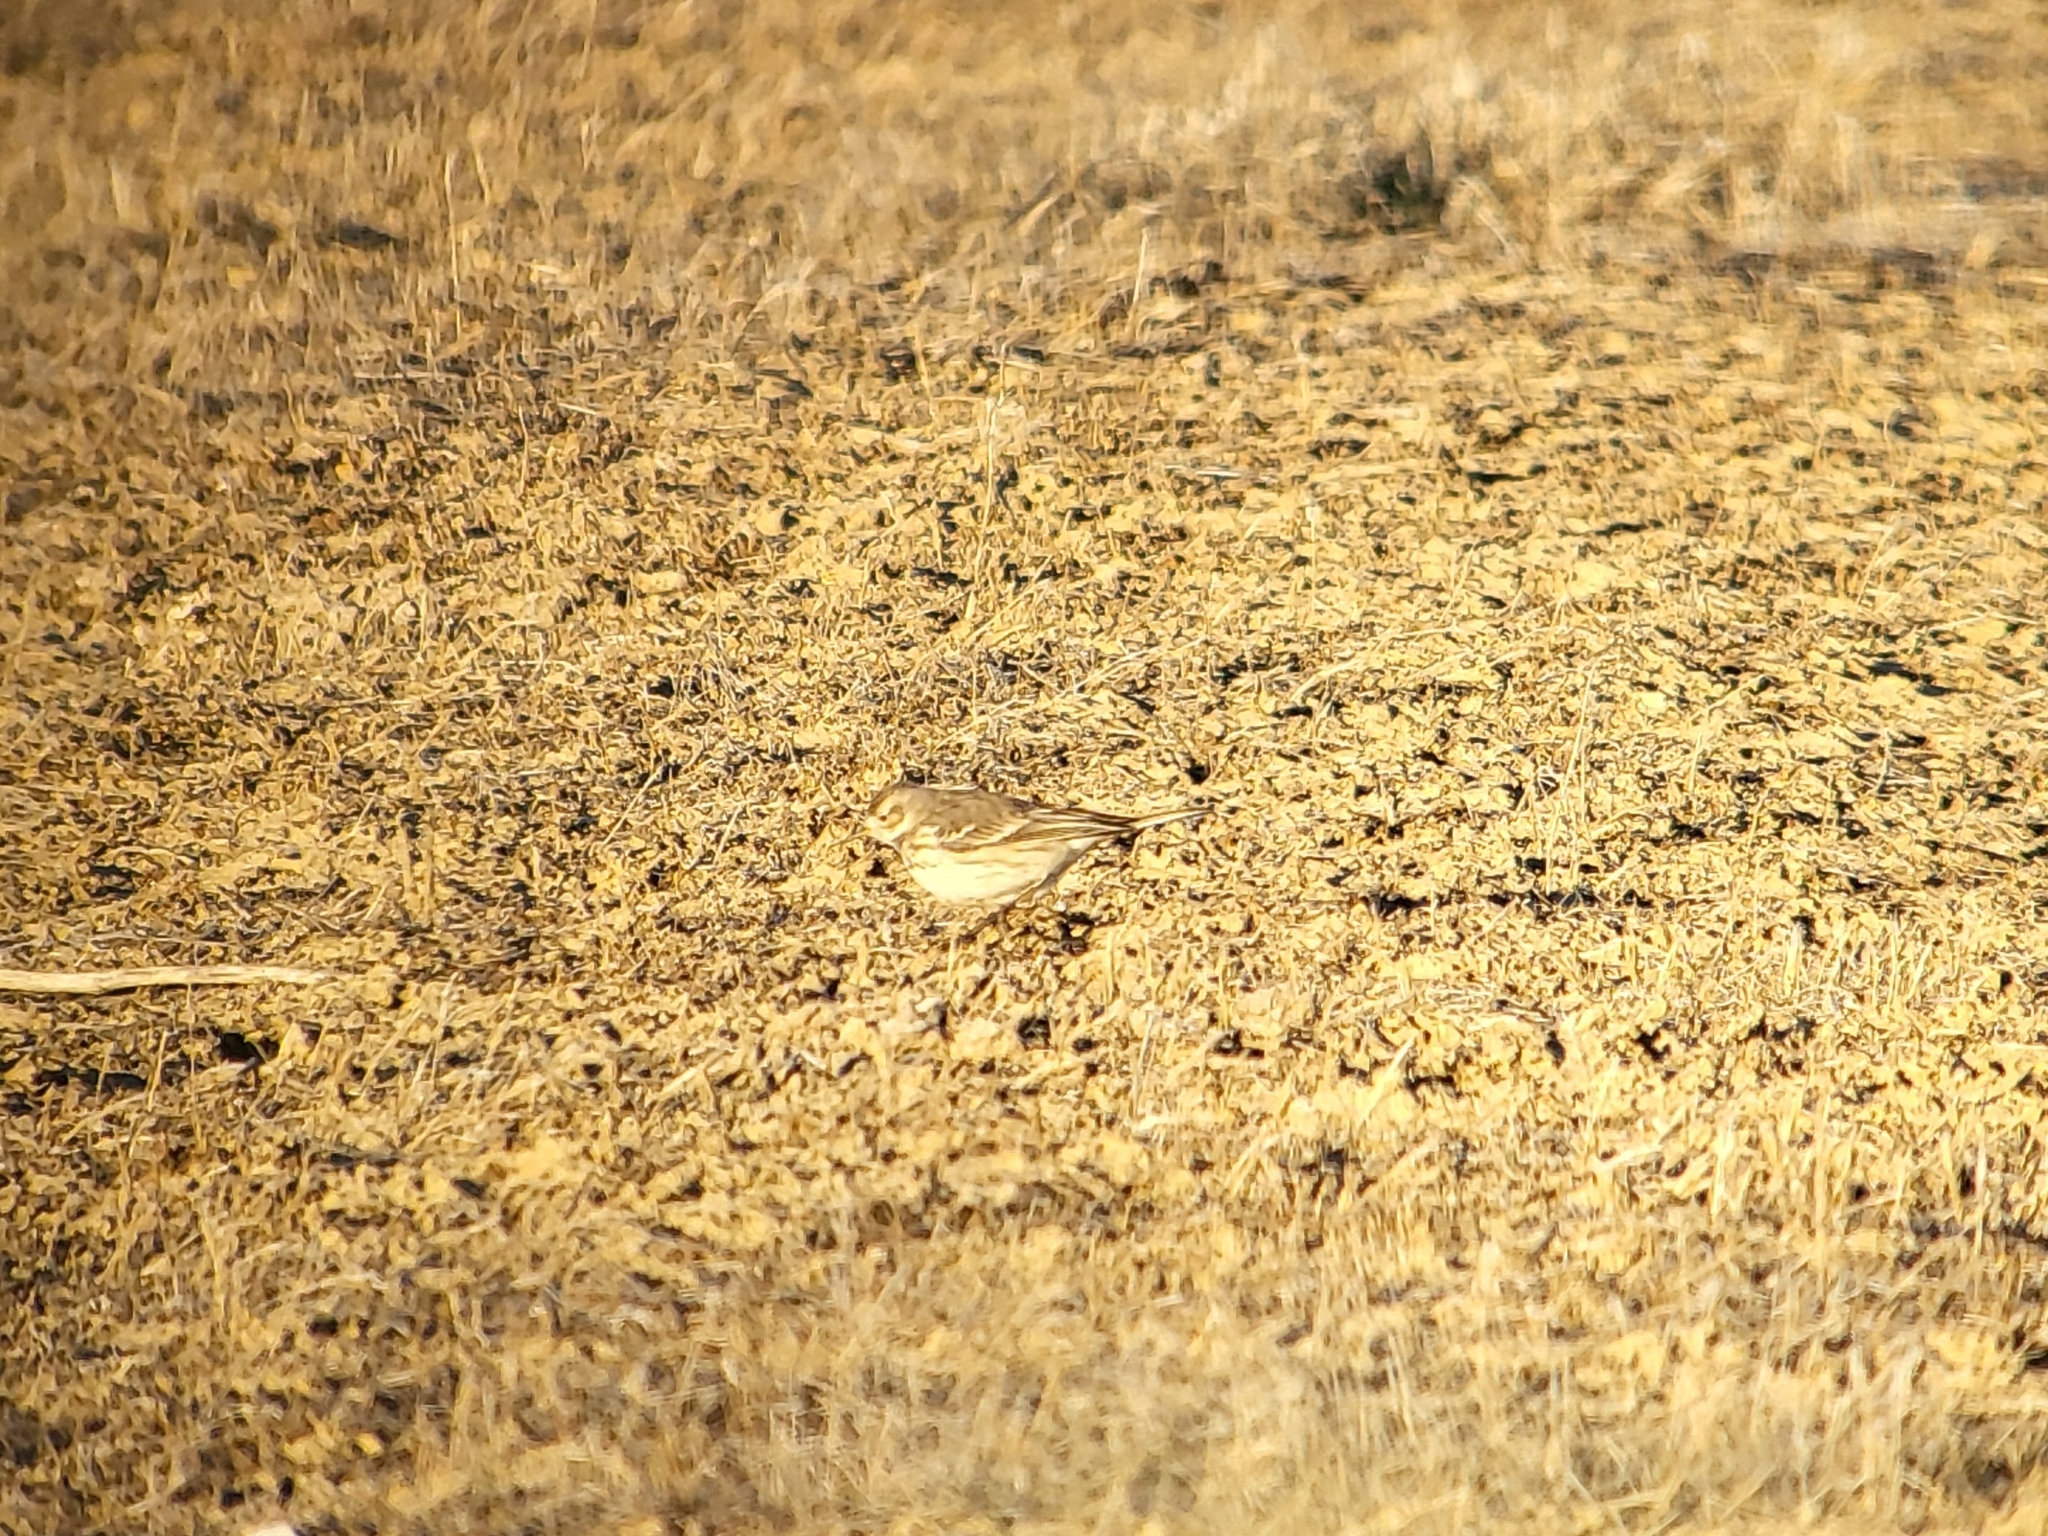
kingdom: Animalia
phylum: Chordata
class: Aves
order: Passeriformes
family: Motacillidae
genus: Anthus
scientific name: Anthus rubescens
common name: Buff-bellied pipit
